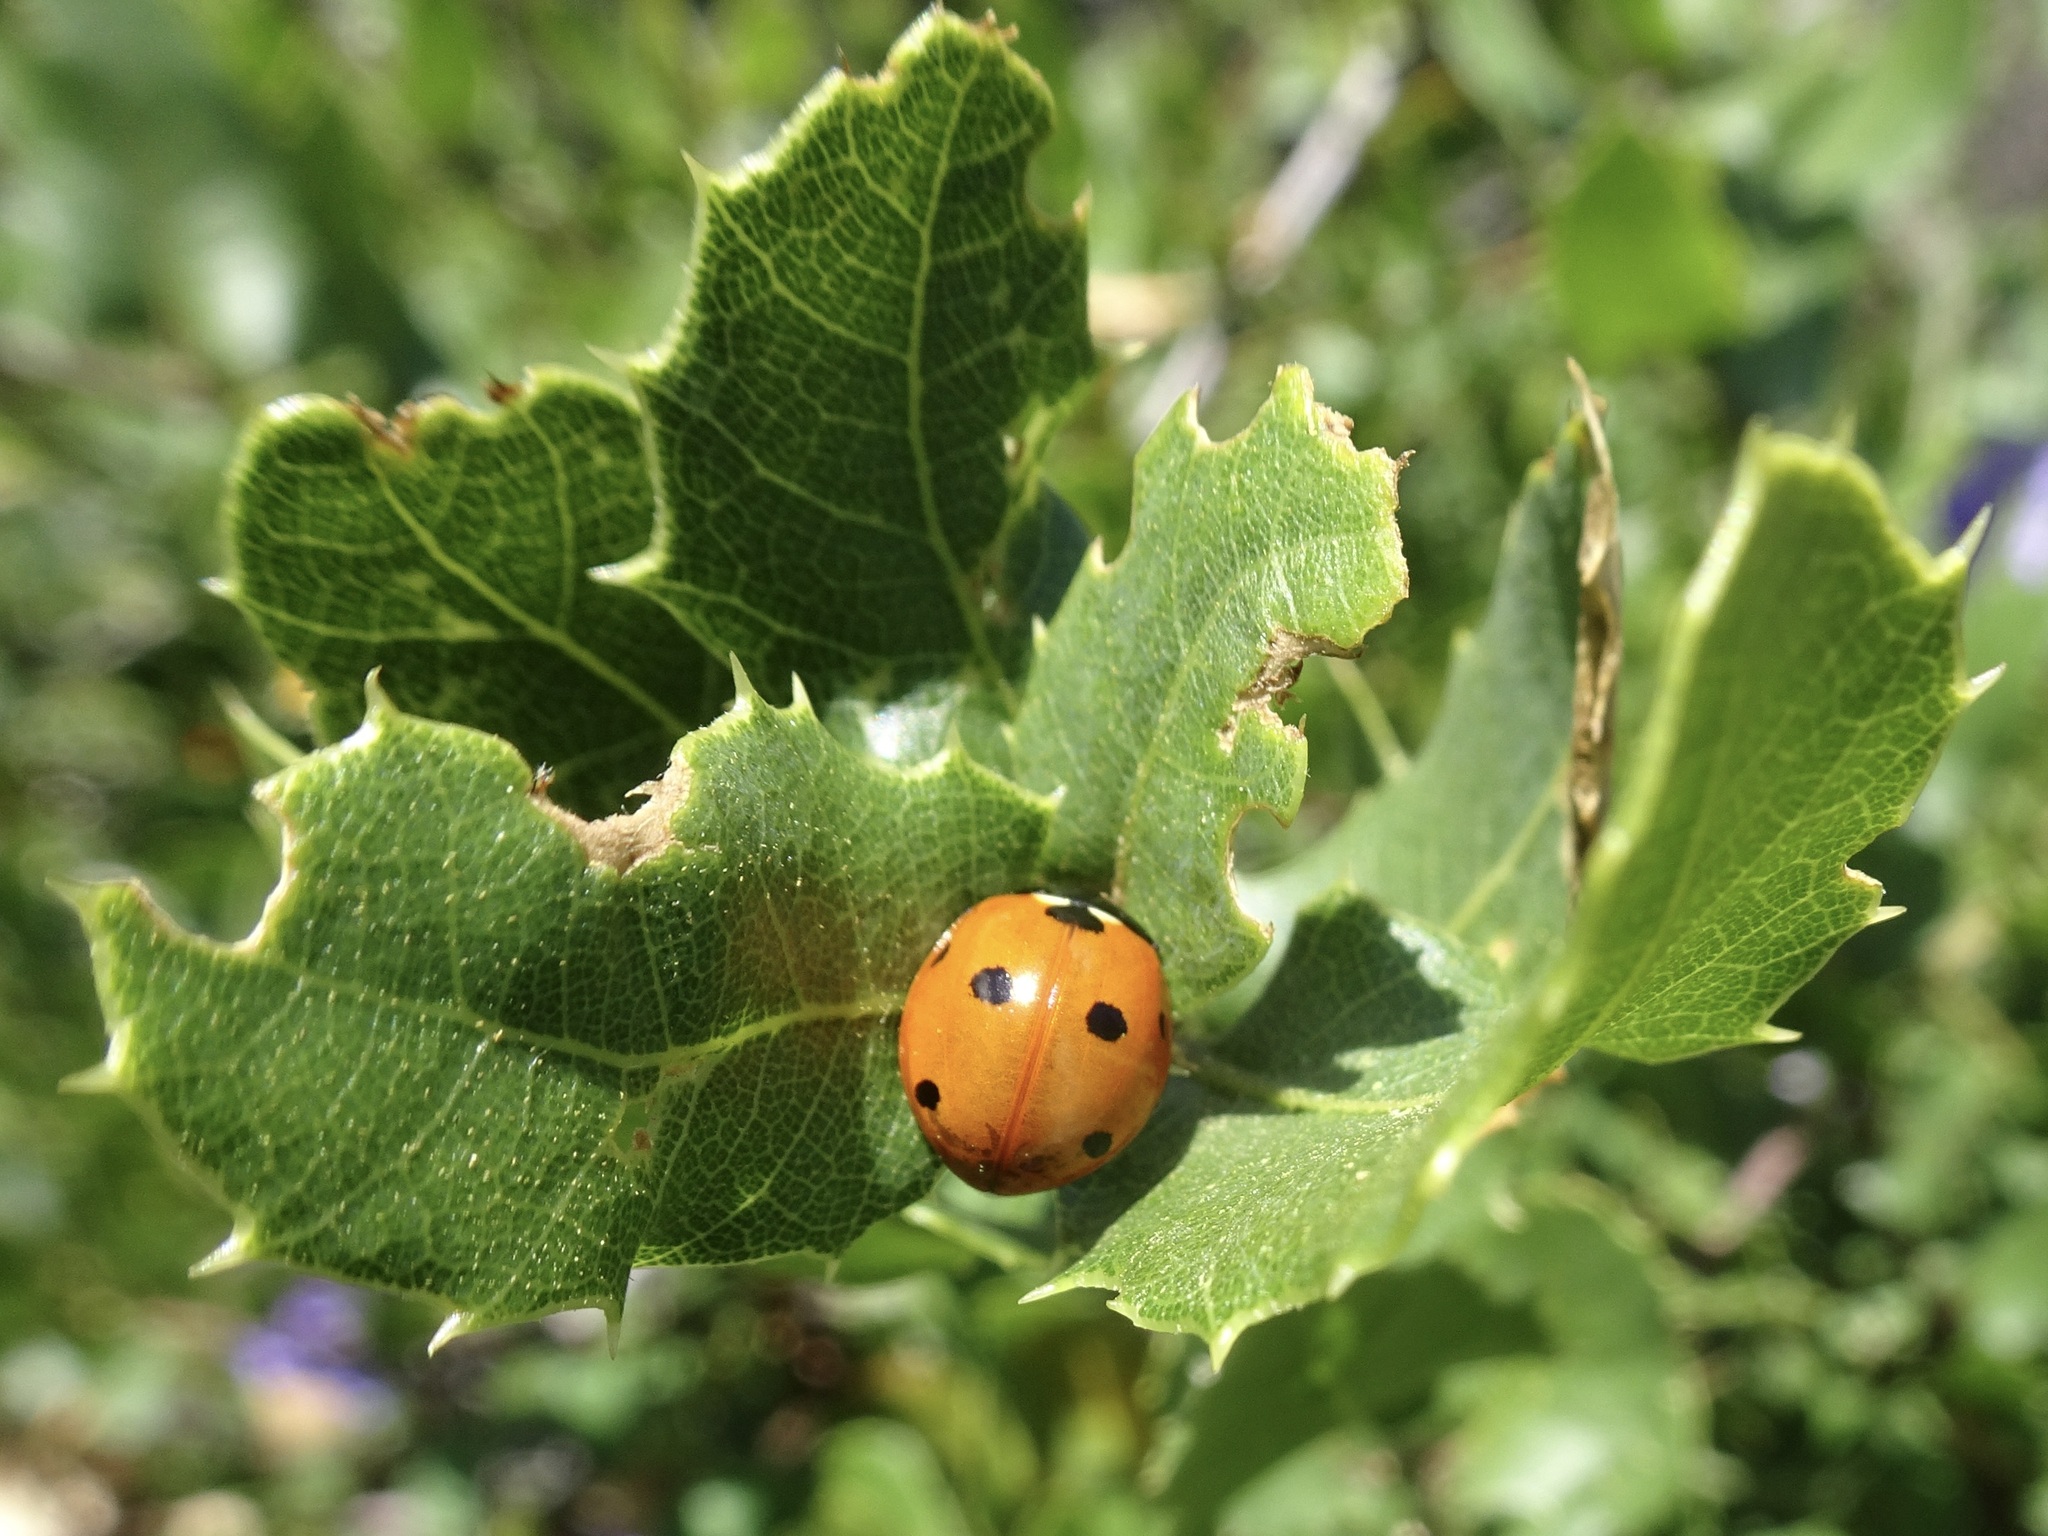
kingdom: Animalia
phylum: Arthropoda
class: Insecta
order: Coleoptera
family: Coccinellidae
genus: Coccinella
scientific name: Coccinella septempunctata
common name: Sevenspotted lady beetle
